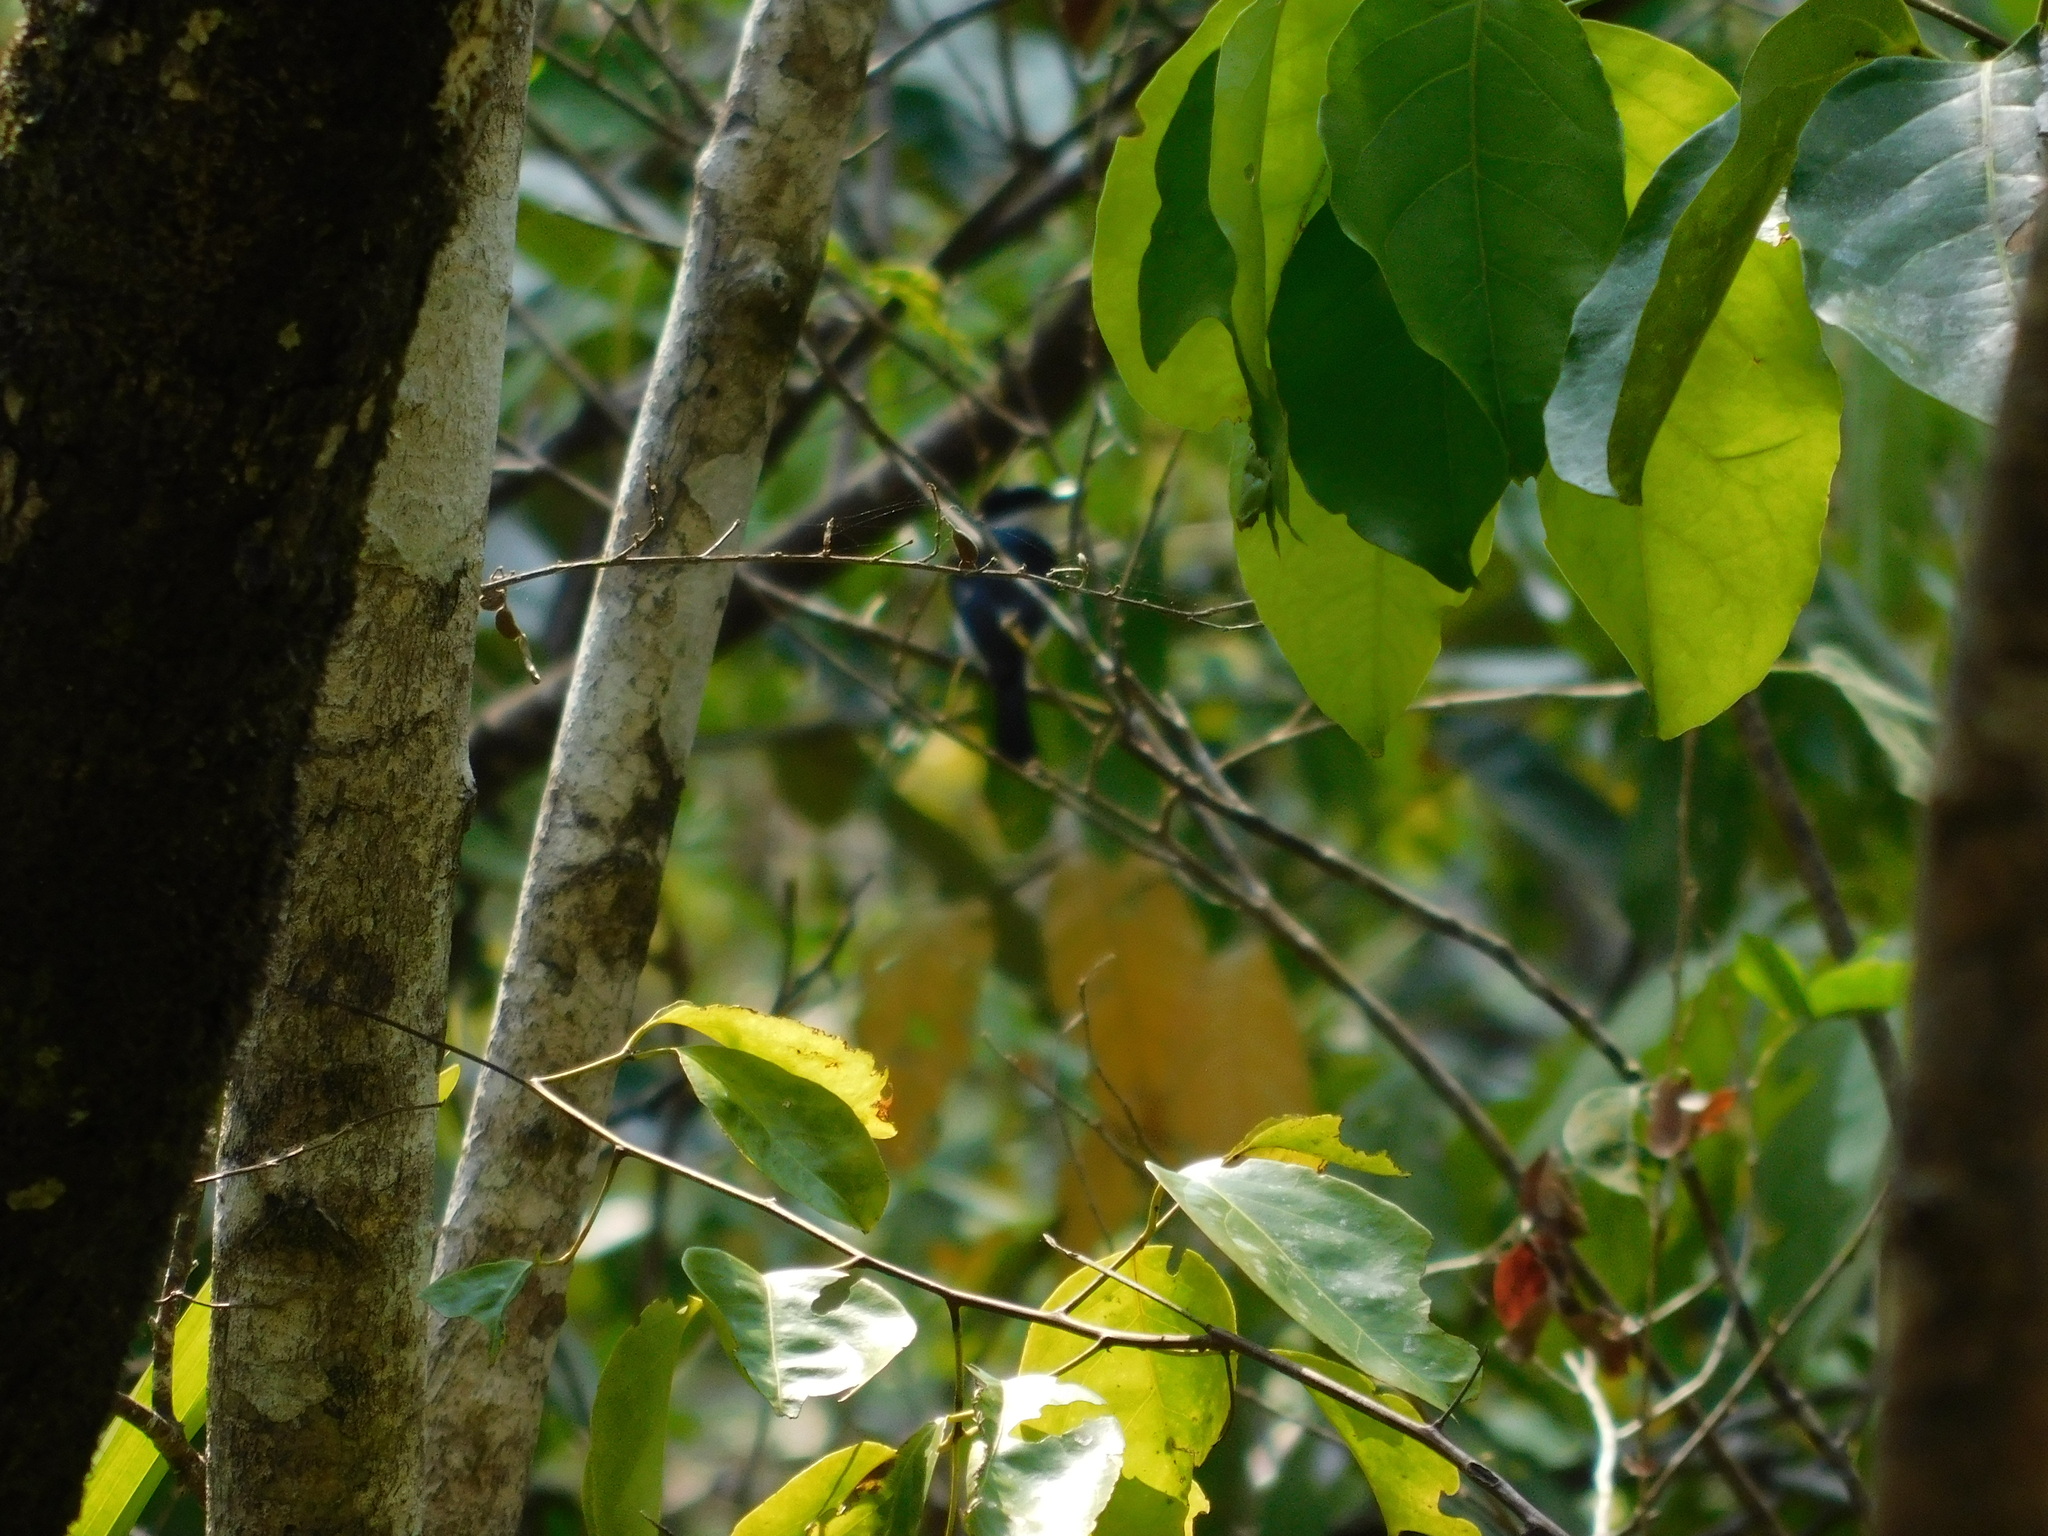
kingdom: Animalia
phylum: Chordata
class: Aves
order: Passeriformes
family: Tephrodornithidae
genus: Hemipus
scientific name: Hemipus hirundinaceus
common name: Black-winged flycatcher-shrike
